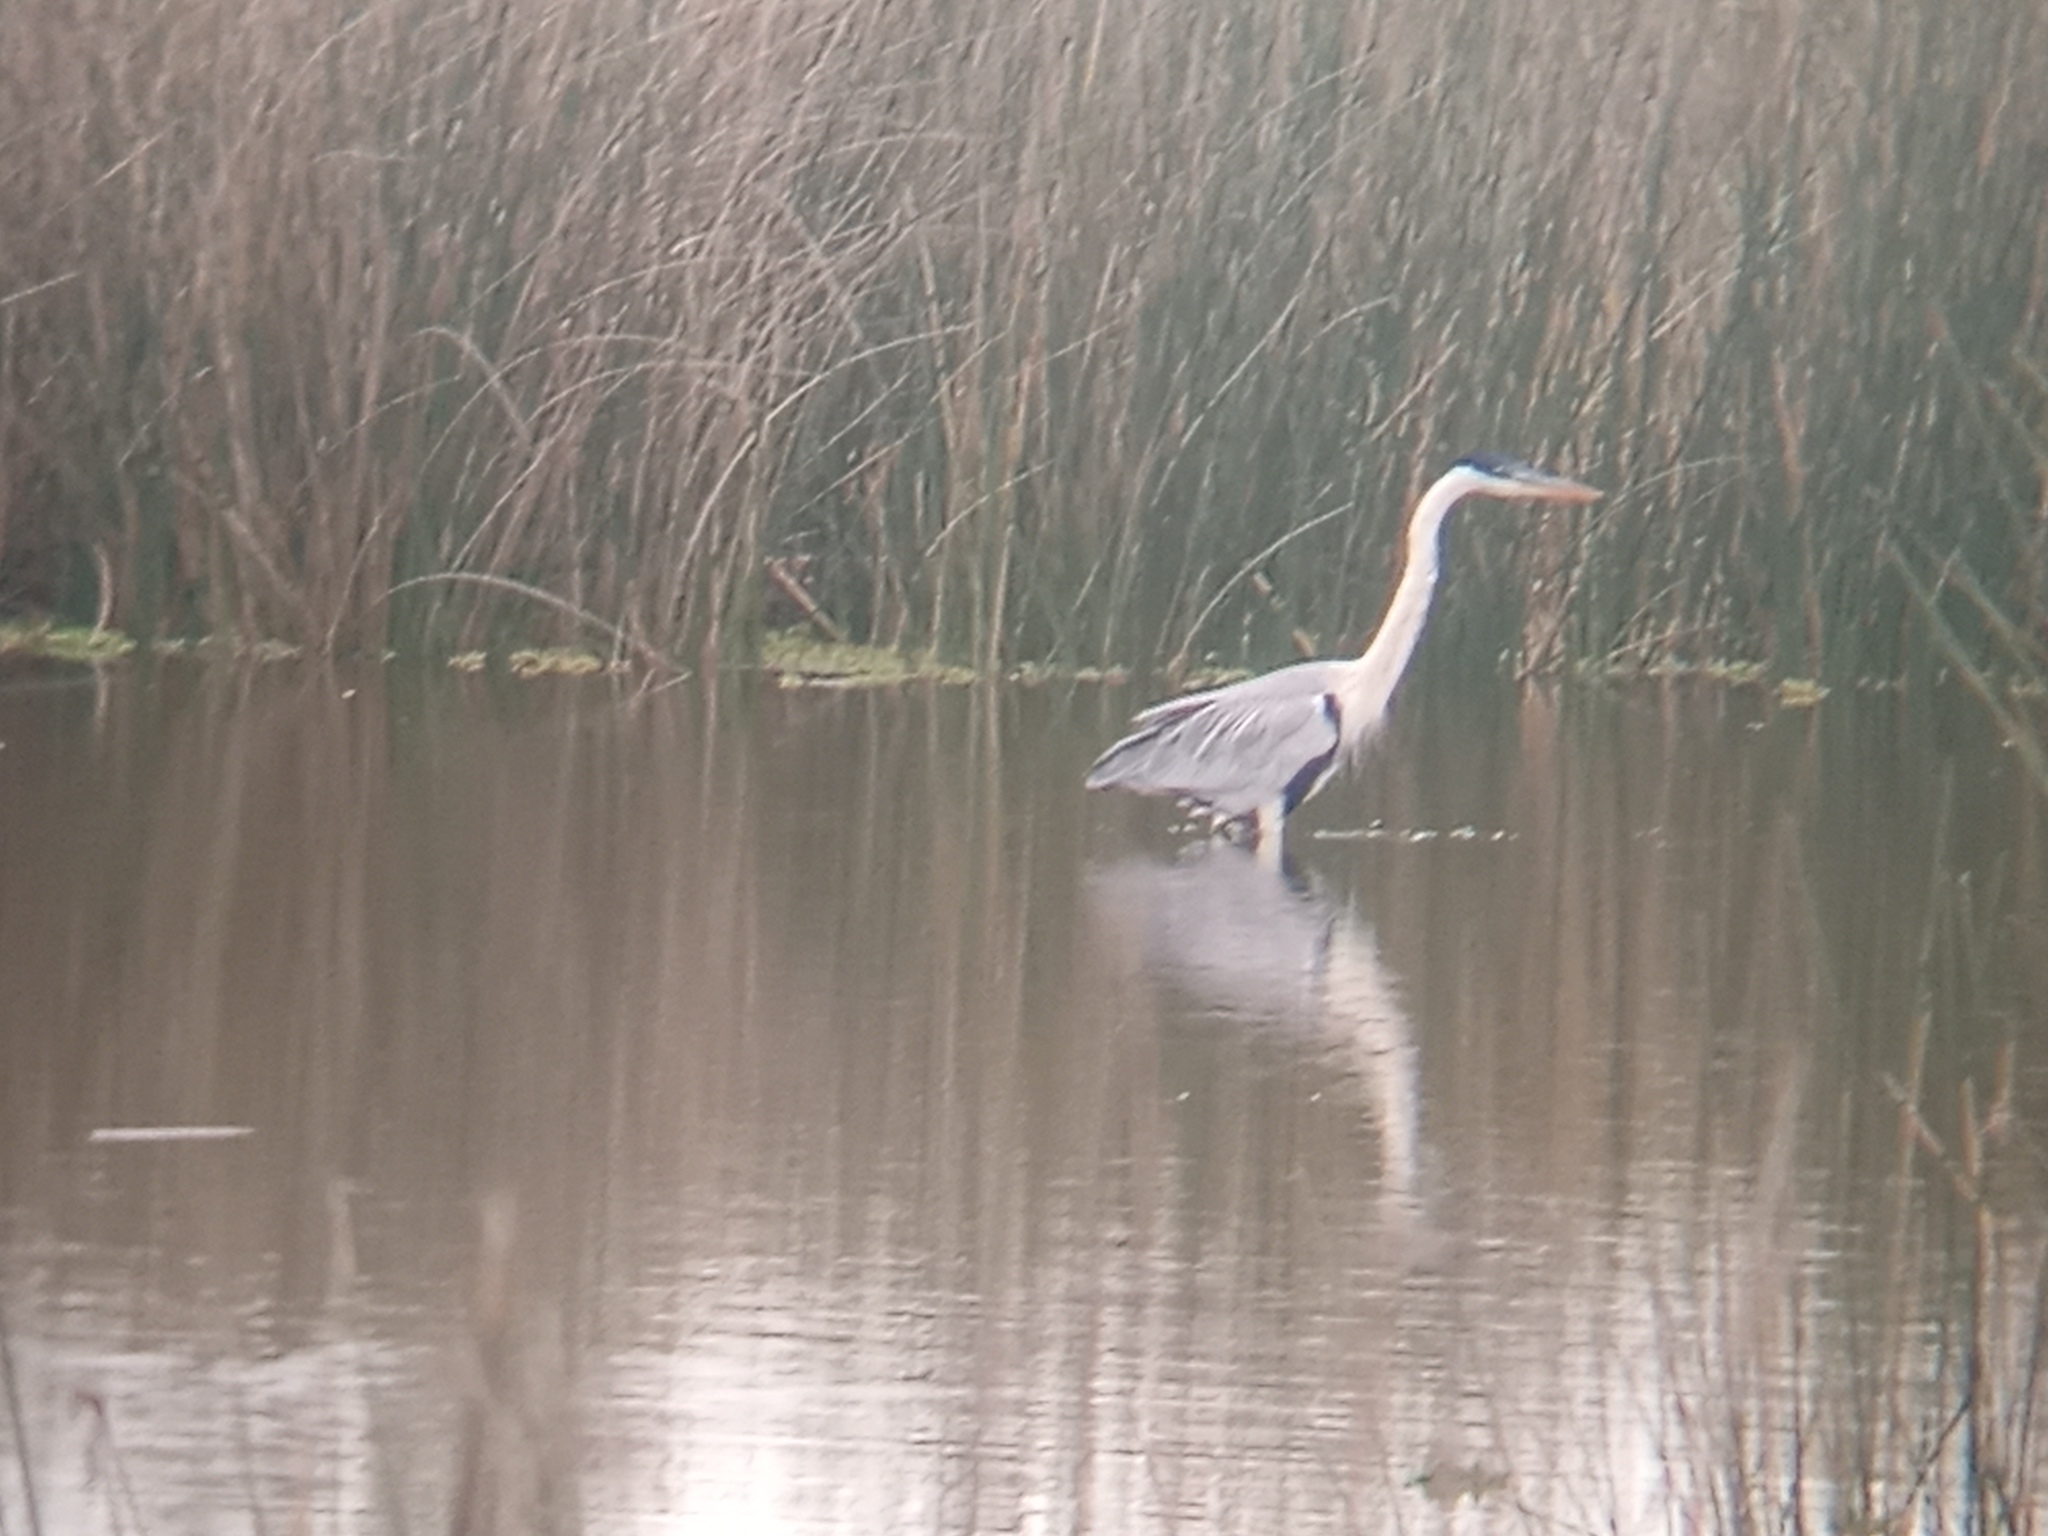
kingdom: Animalia
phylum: Chordata
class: Aves
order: Pelecaniformes
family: Ardeidae
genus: Ardea
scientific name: Ardea cocoi
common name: Cocoi heron
